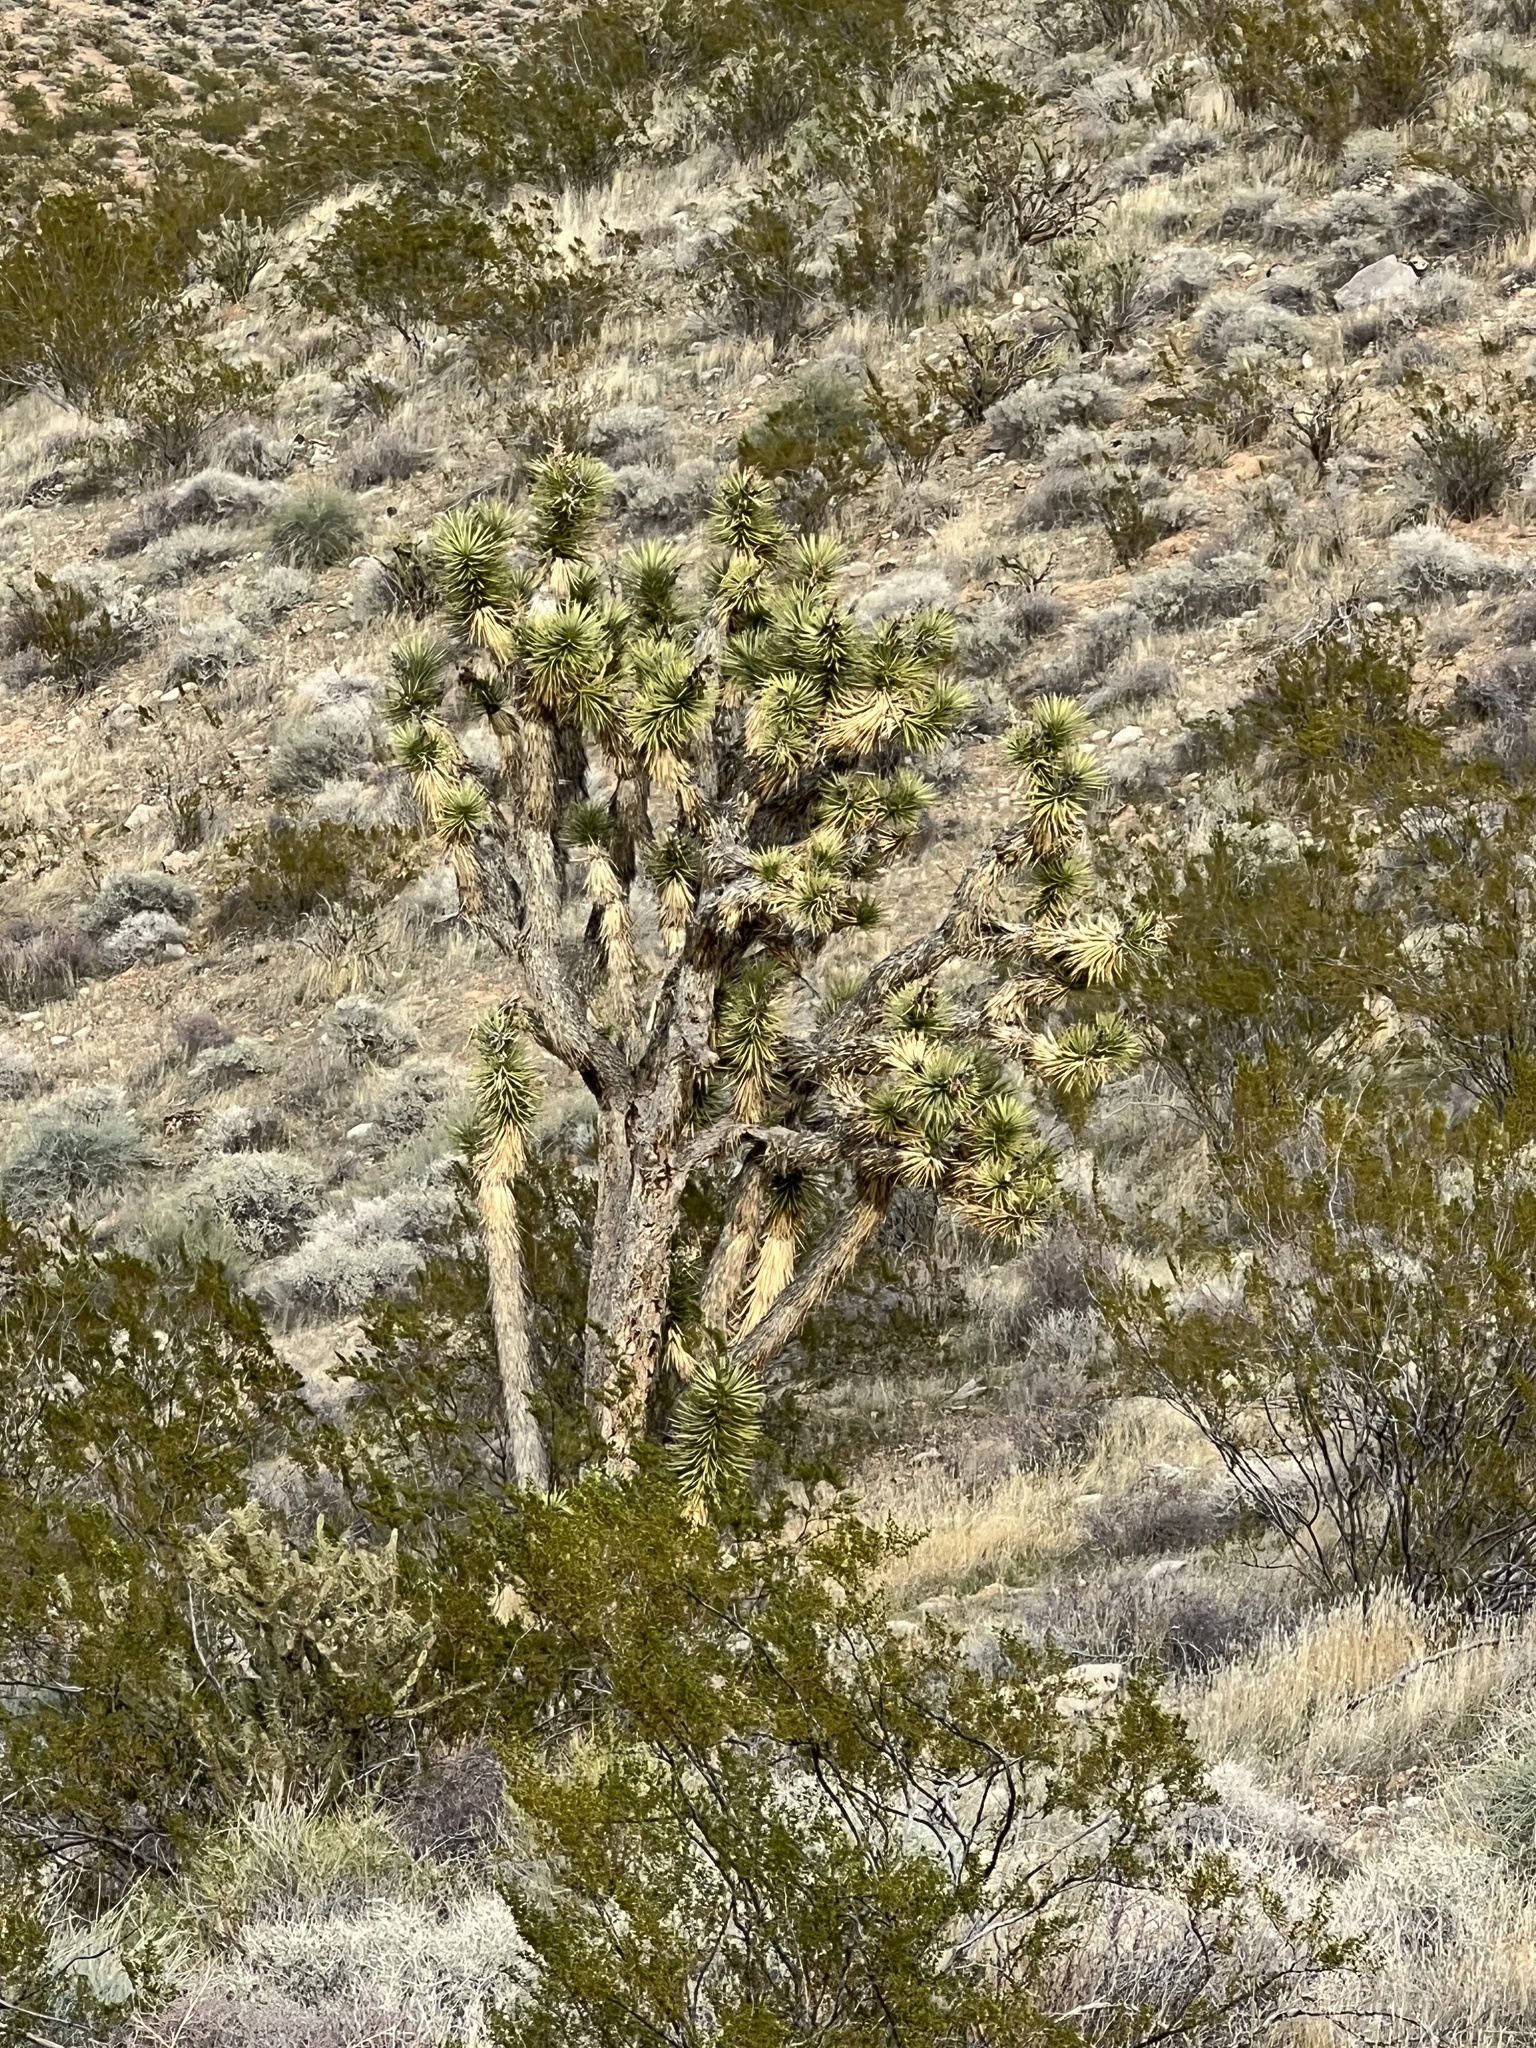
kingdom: Plantae
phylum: Tracheophyta
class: Liliopsida
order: Asparagales
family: Asparagaceae
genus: Yucca
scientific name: Yucca brevifolia
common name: Joshua tree
